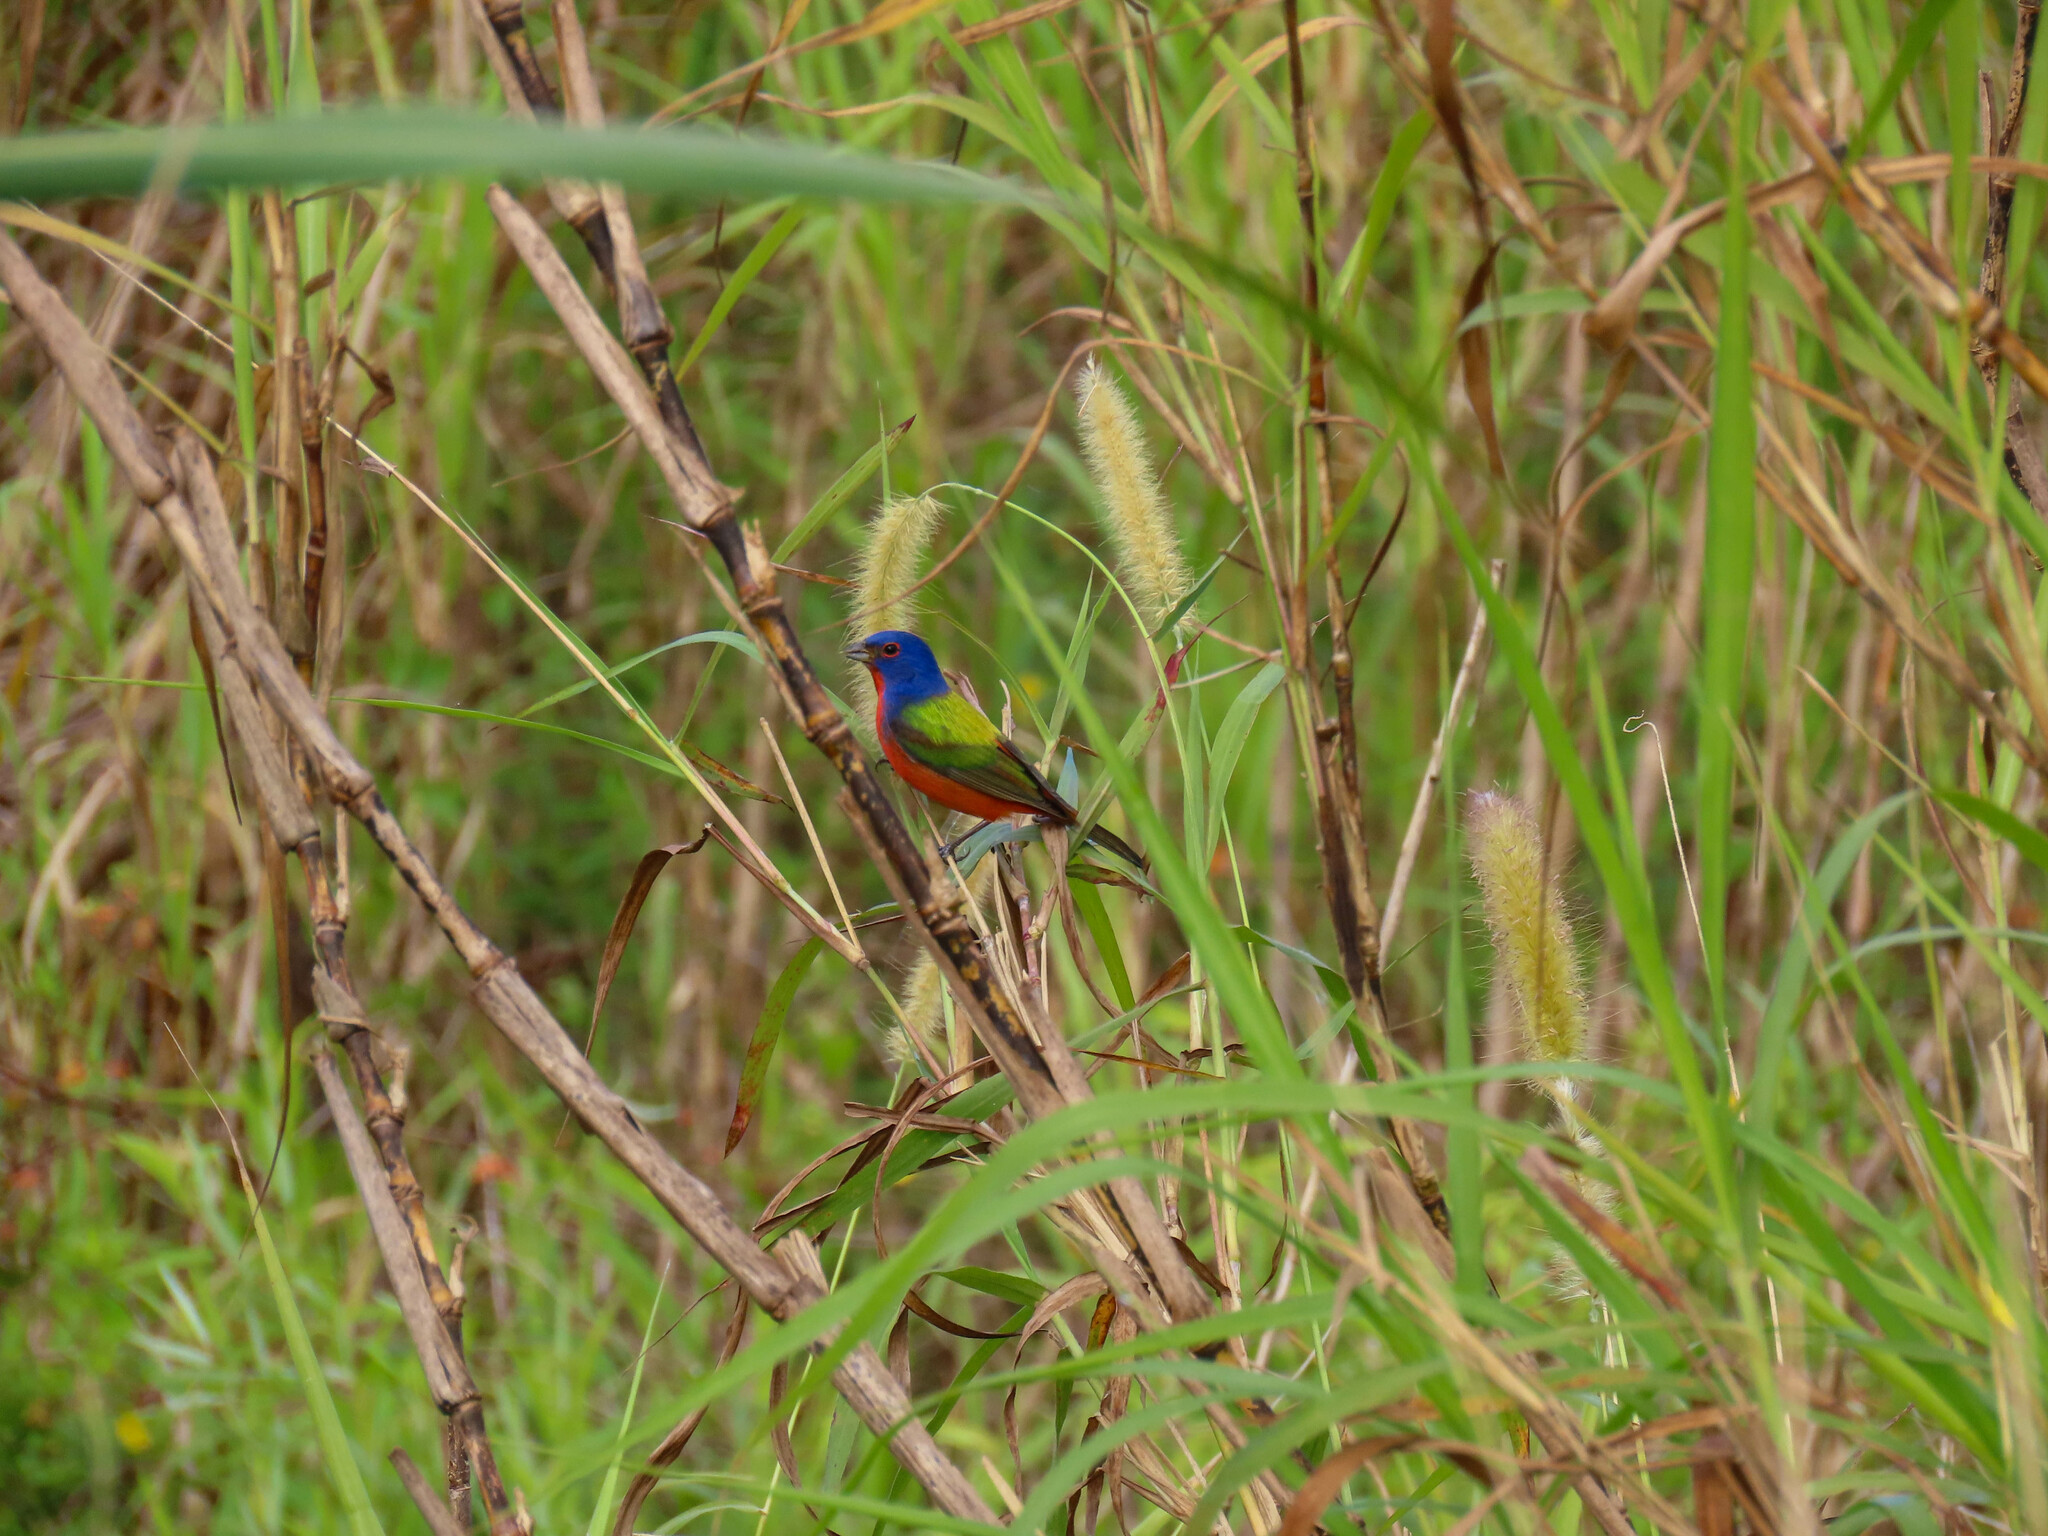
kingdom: Animalia
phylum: Chordata
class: Aves
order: Passeriformes
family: Cardinalidae
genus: Passerina
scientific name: Passerina ciris
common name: Painted bunting
